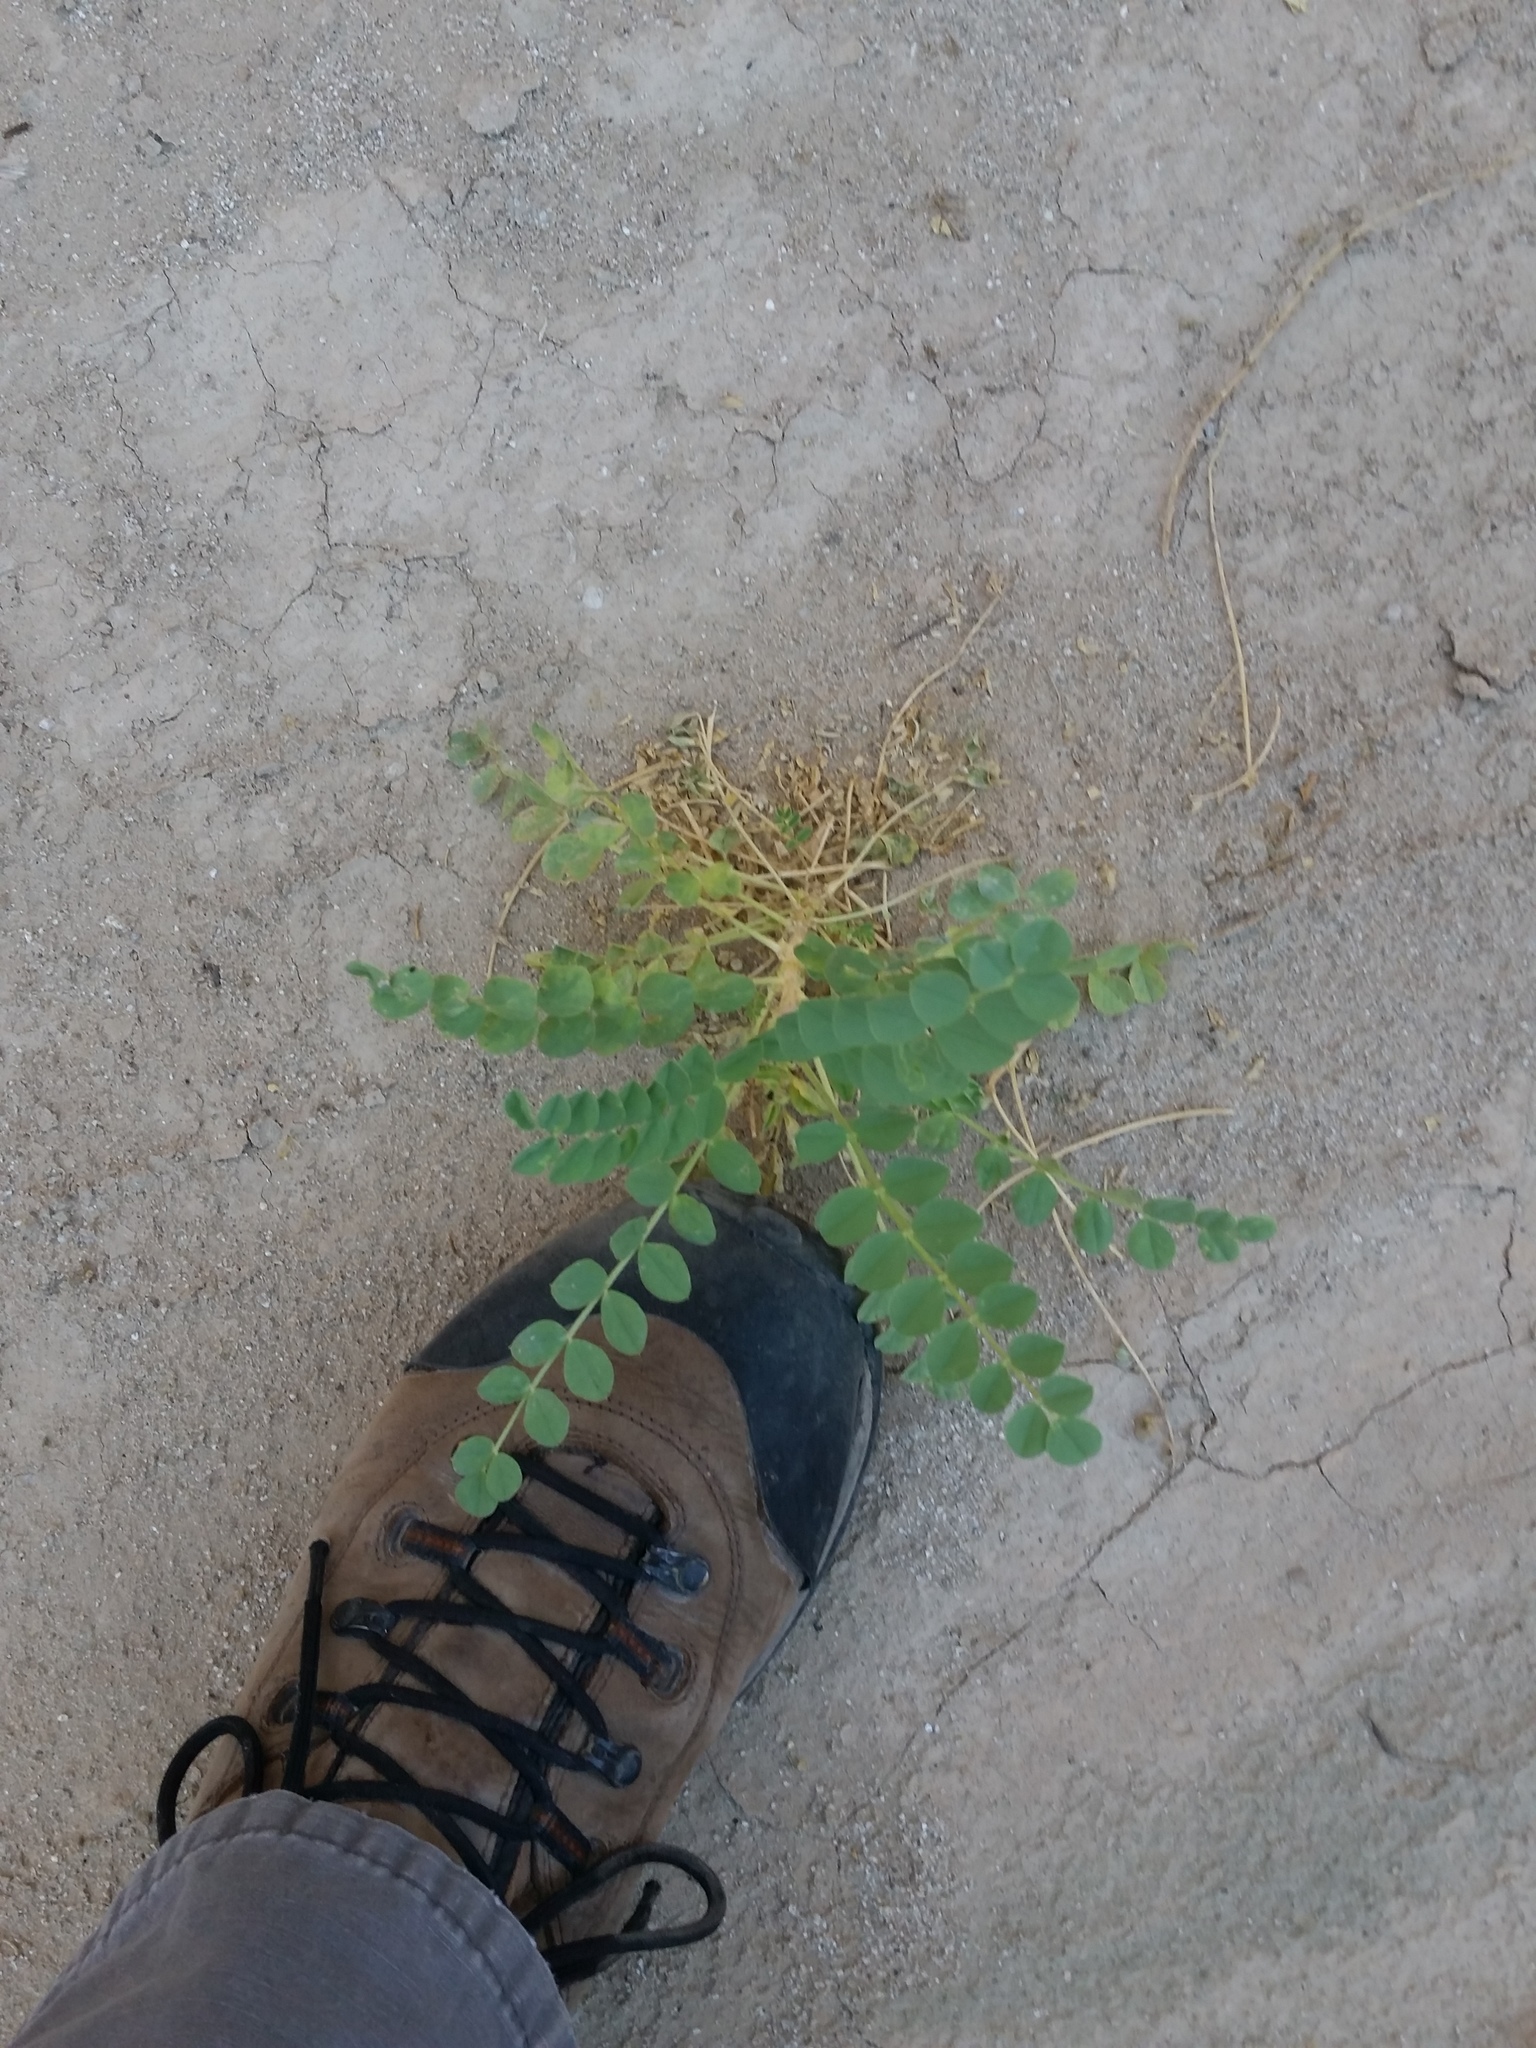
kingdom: Plantae
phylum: Tracheophyta
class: Magnoliopsida
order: Fabales
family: Fabaceae
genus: Astragalus
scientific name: Astragalus crotalariae
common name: Salton milkvetch
